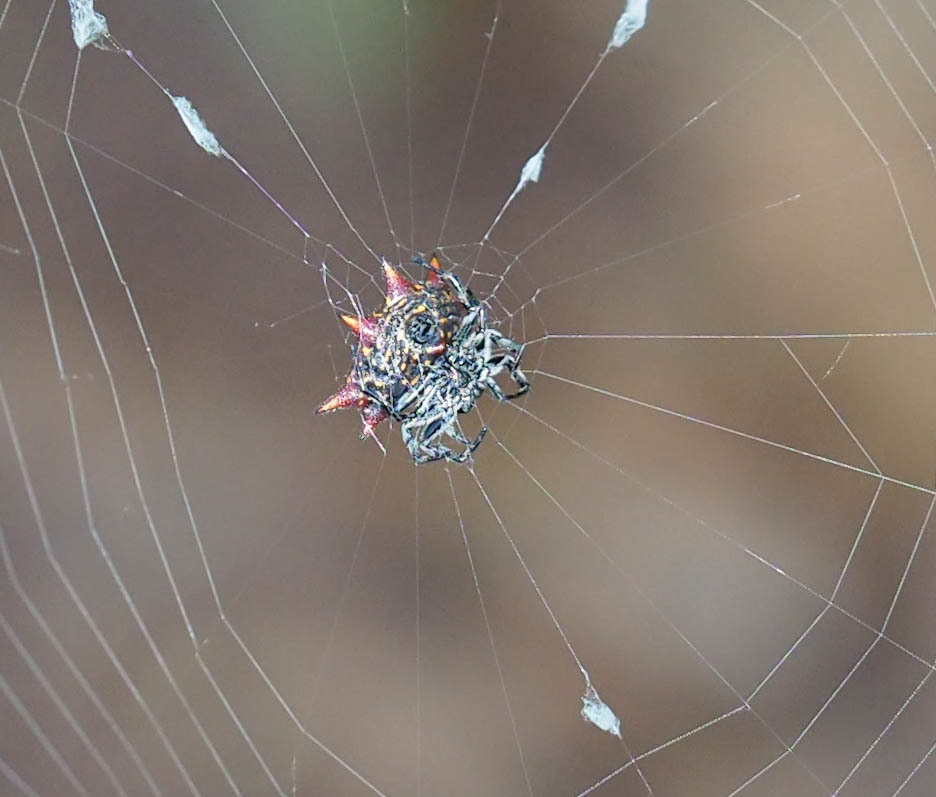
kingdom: Animalia
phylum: Arthropoda
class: Arachnida
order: Araneae
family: Araneidae
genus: Gasteracantha
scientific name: Gasteracantha cancriformis
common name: Orb weavers
